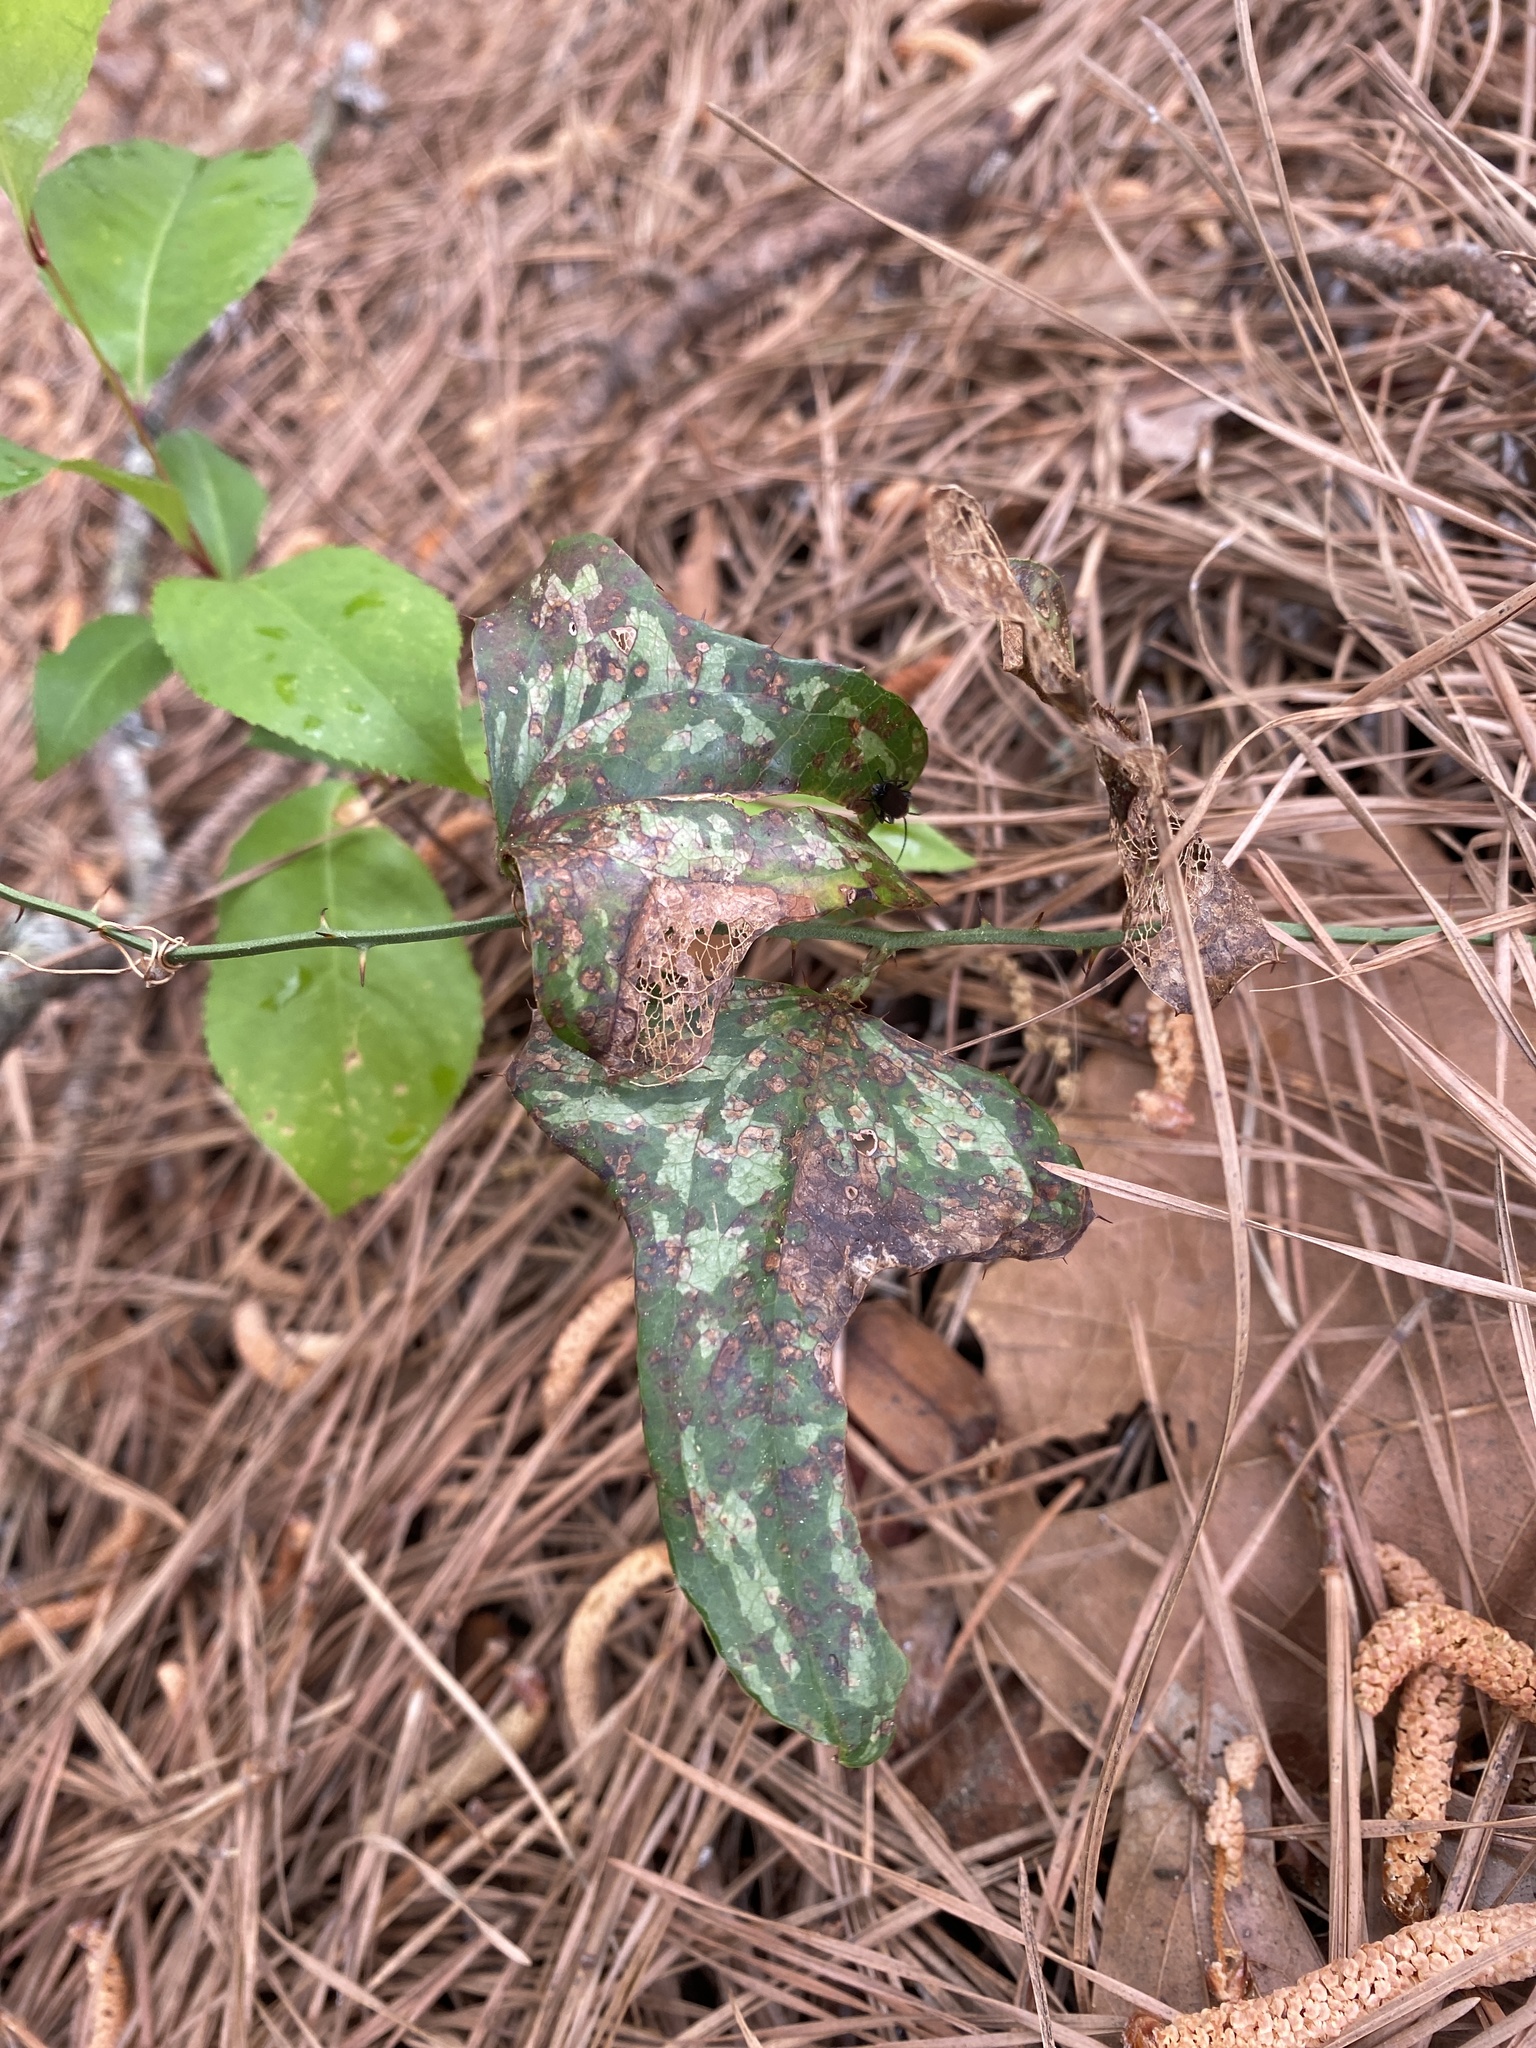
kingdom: Plantae
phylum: Tracheophyta
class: Liliopsida
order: Liliales
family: Smilacaceae
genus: Smilax
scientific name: Smilax bona-nox
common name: Catbrier
